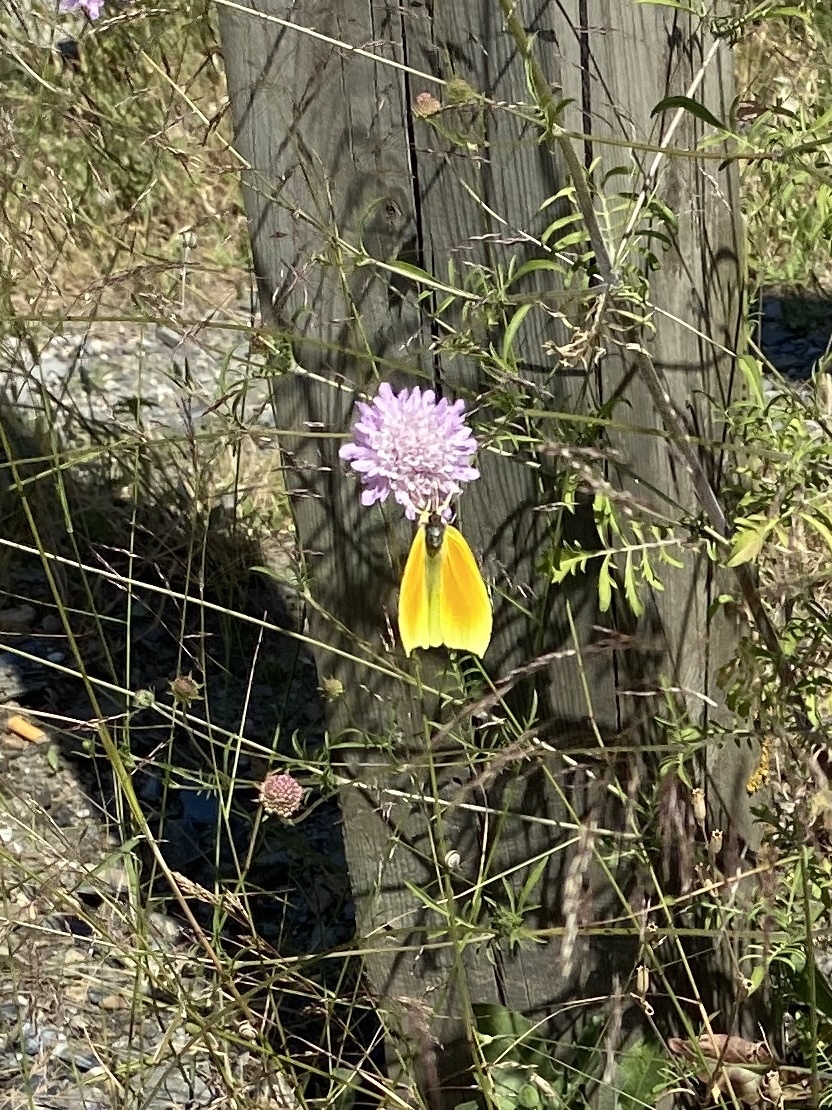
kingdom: Animalia
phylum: Arthropoda
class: Insecta
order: Lepidoptera
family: Pieridae
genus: Gonepteryx
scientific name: Gonepteryx cleopatra
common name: Cleopatra
